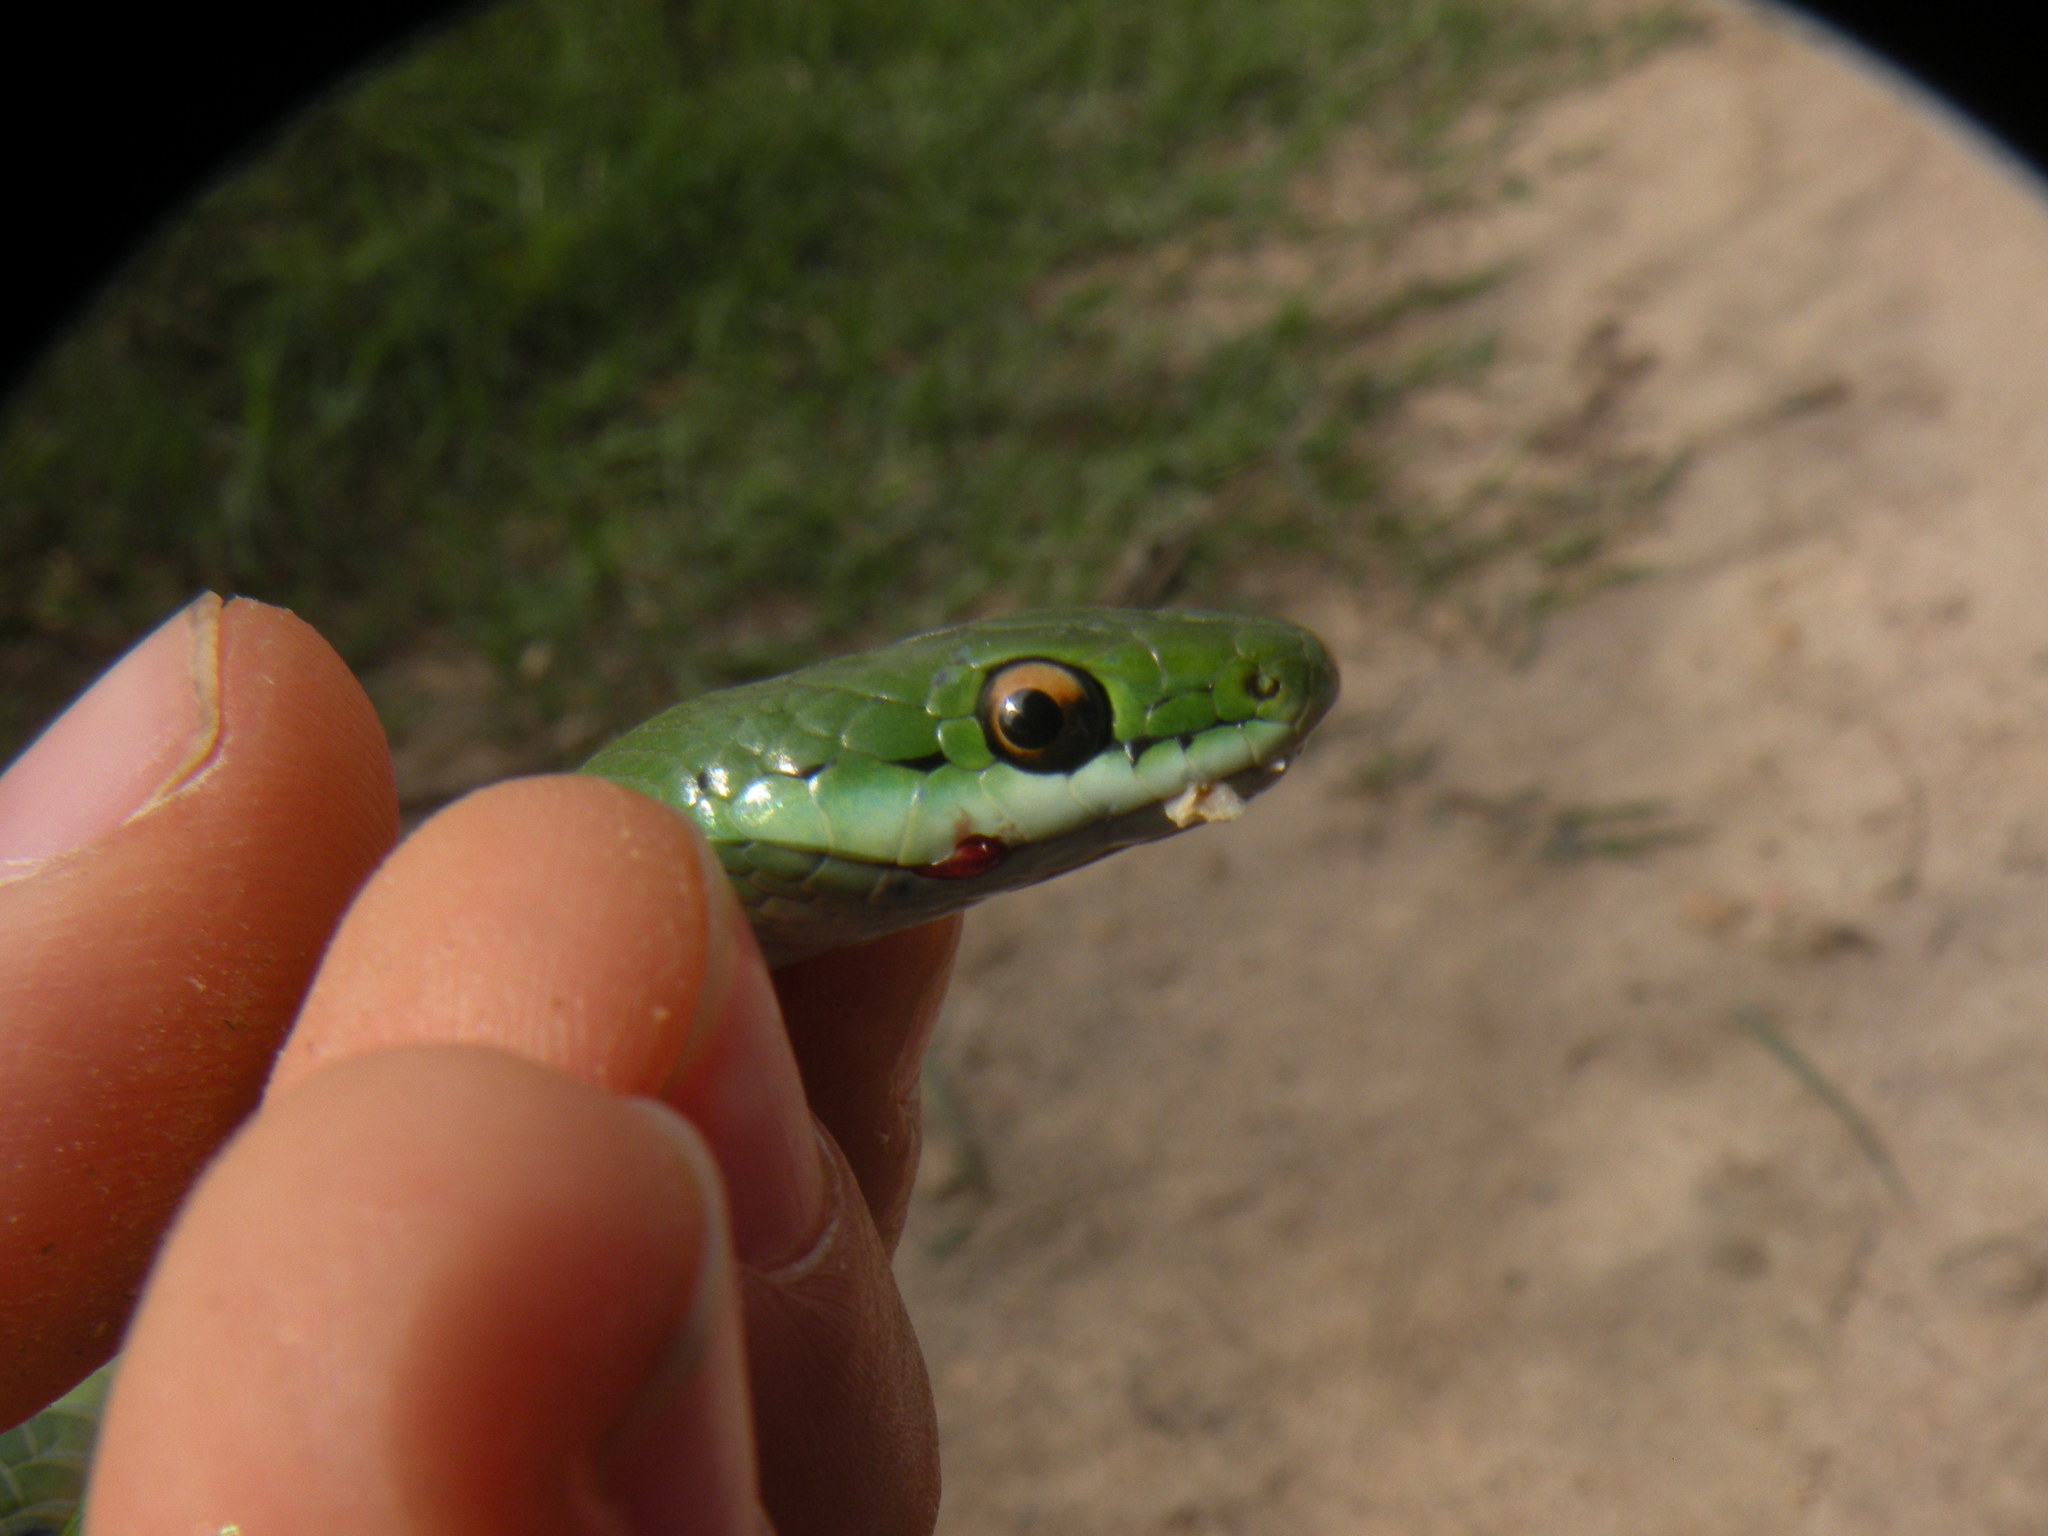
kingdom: Animalia
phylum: Chordata
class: Squamata
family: Colubridae
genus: Philodryas
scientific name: Philodryas aestiva
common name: Brazilian green racer
